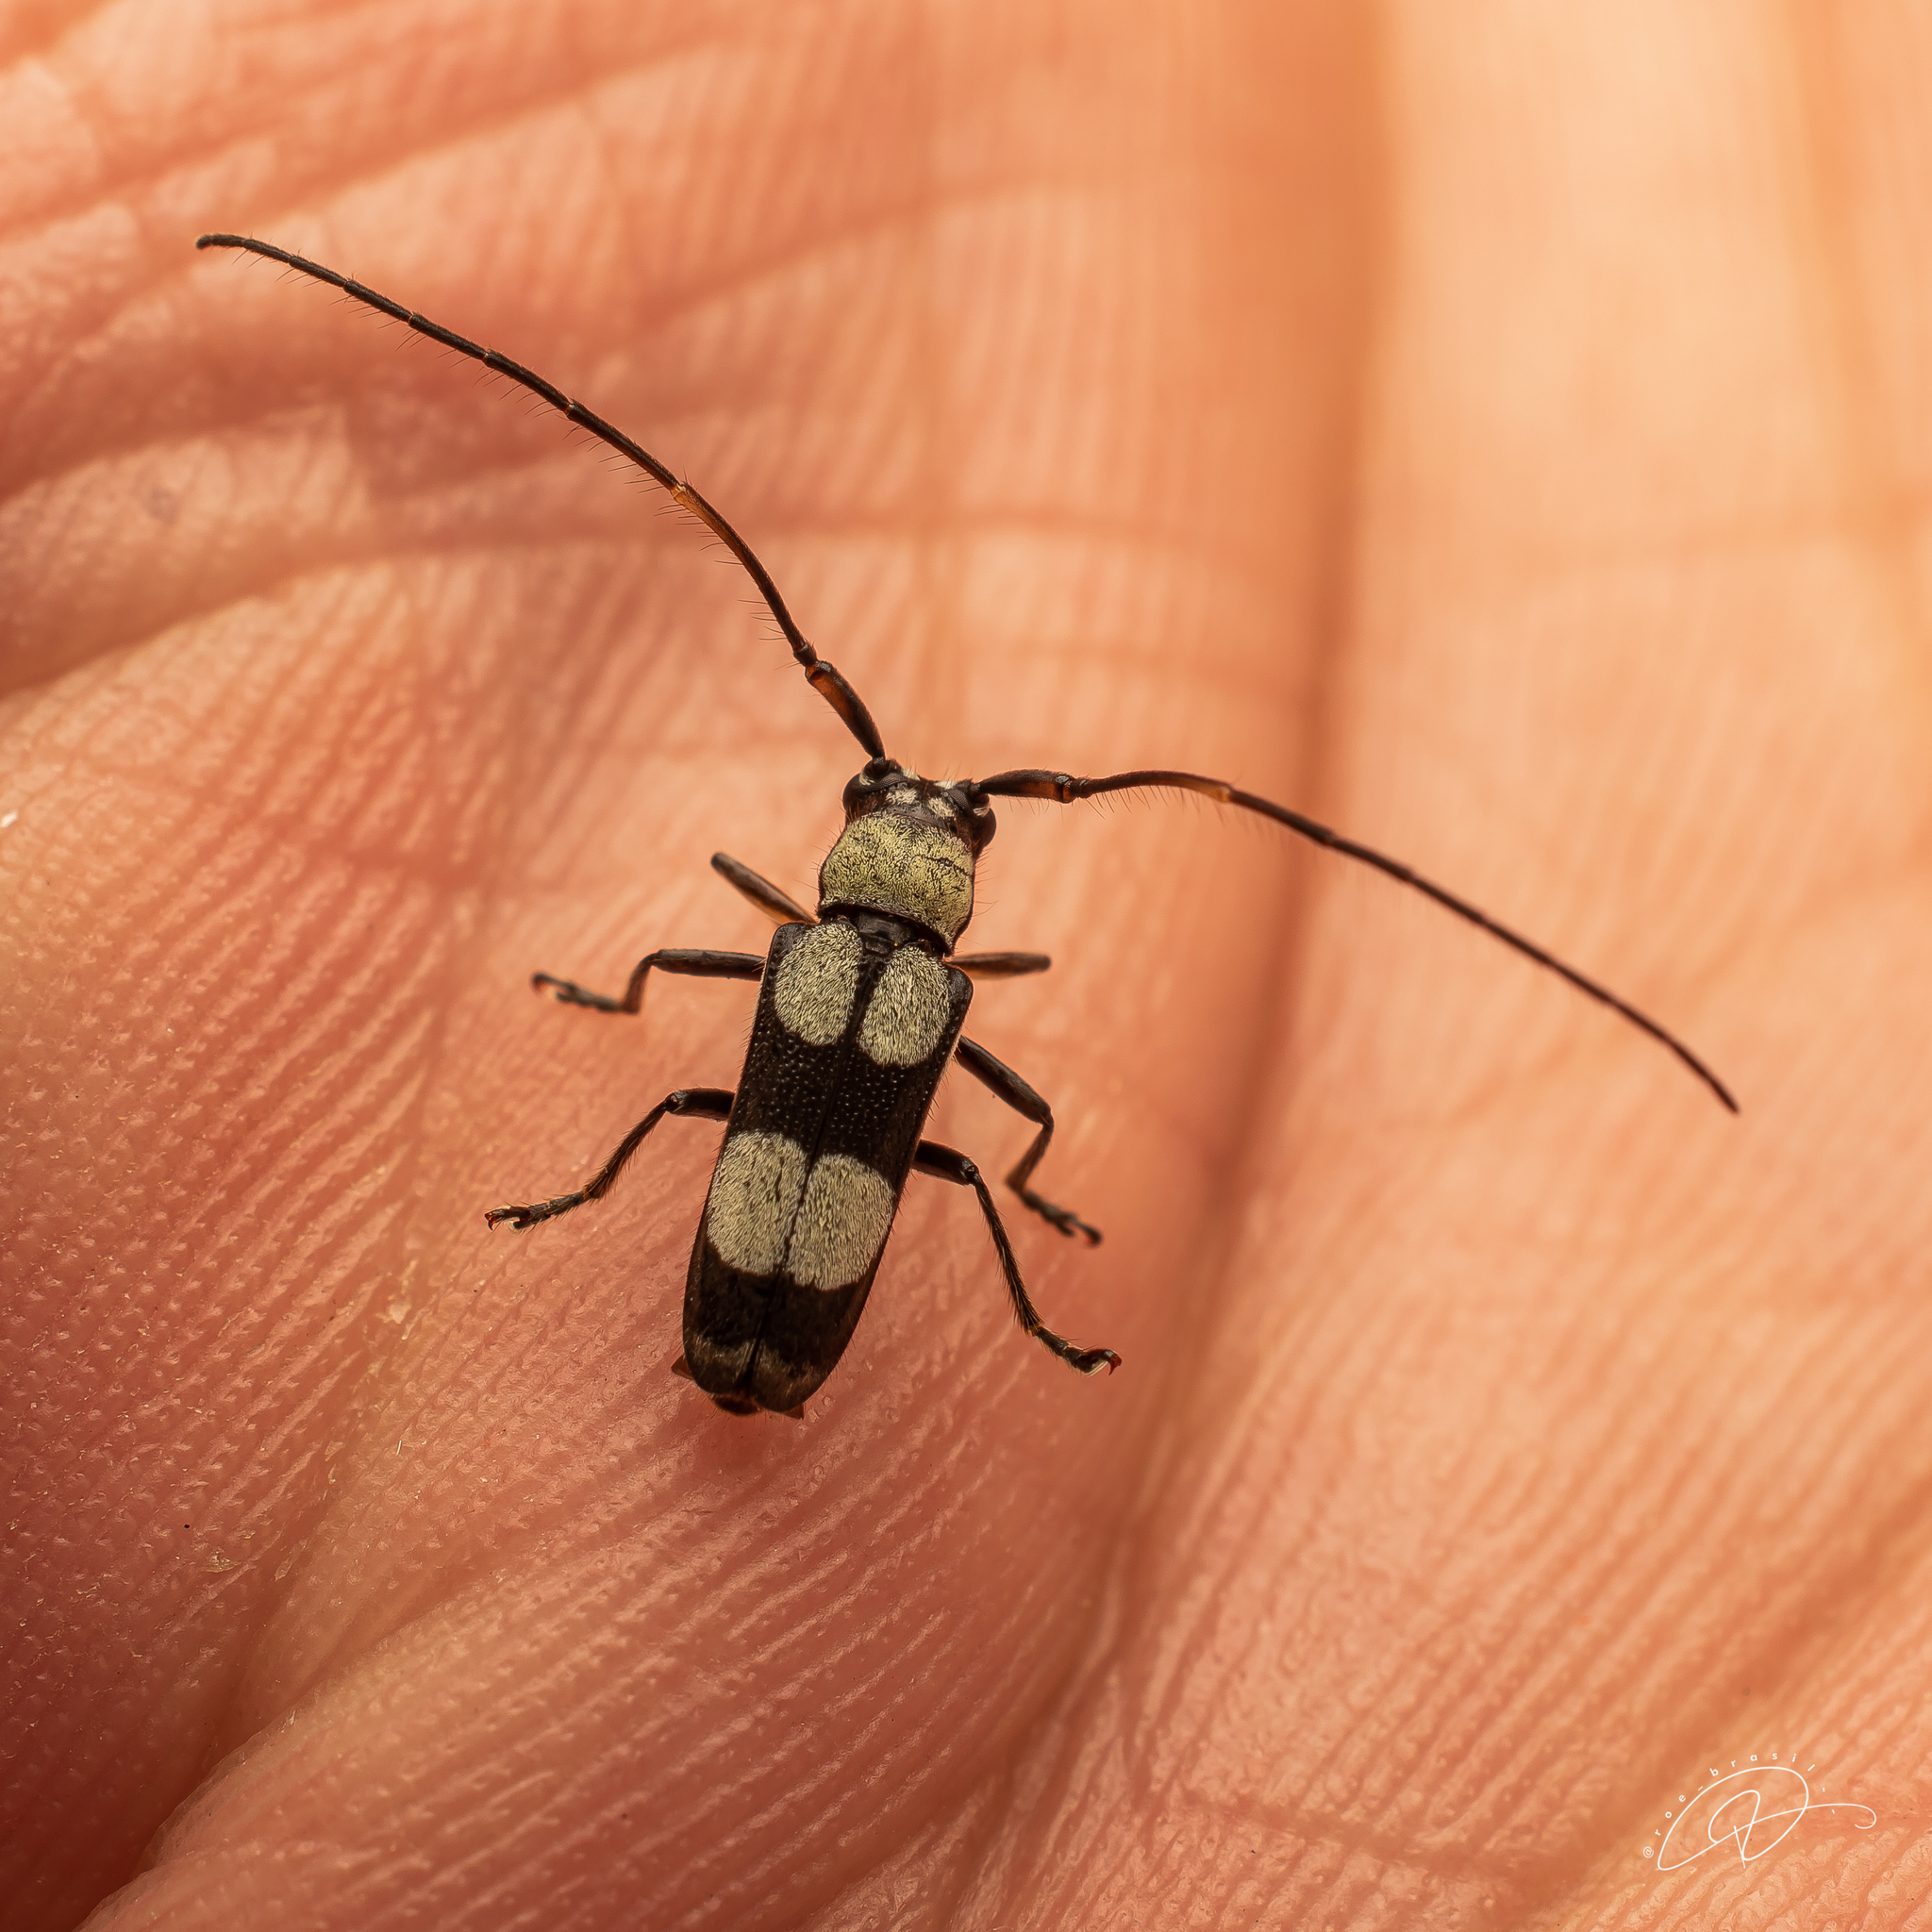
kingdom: Animalia
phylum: Arthropoda
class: Insecta
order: Coleoptera
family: Cerambycidae
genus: Adesmus
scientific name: Adesmus clathratus
